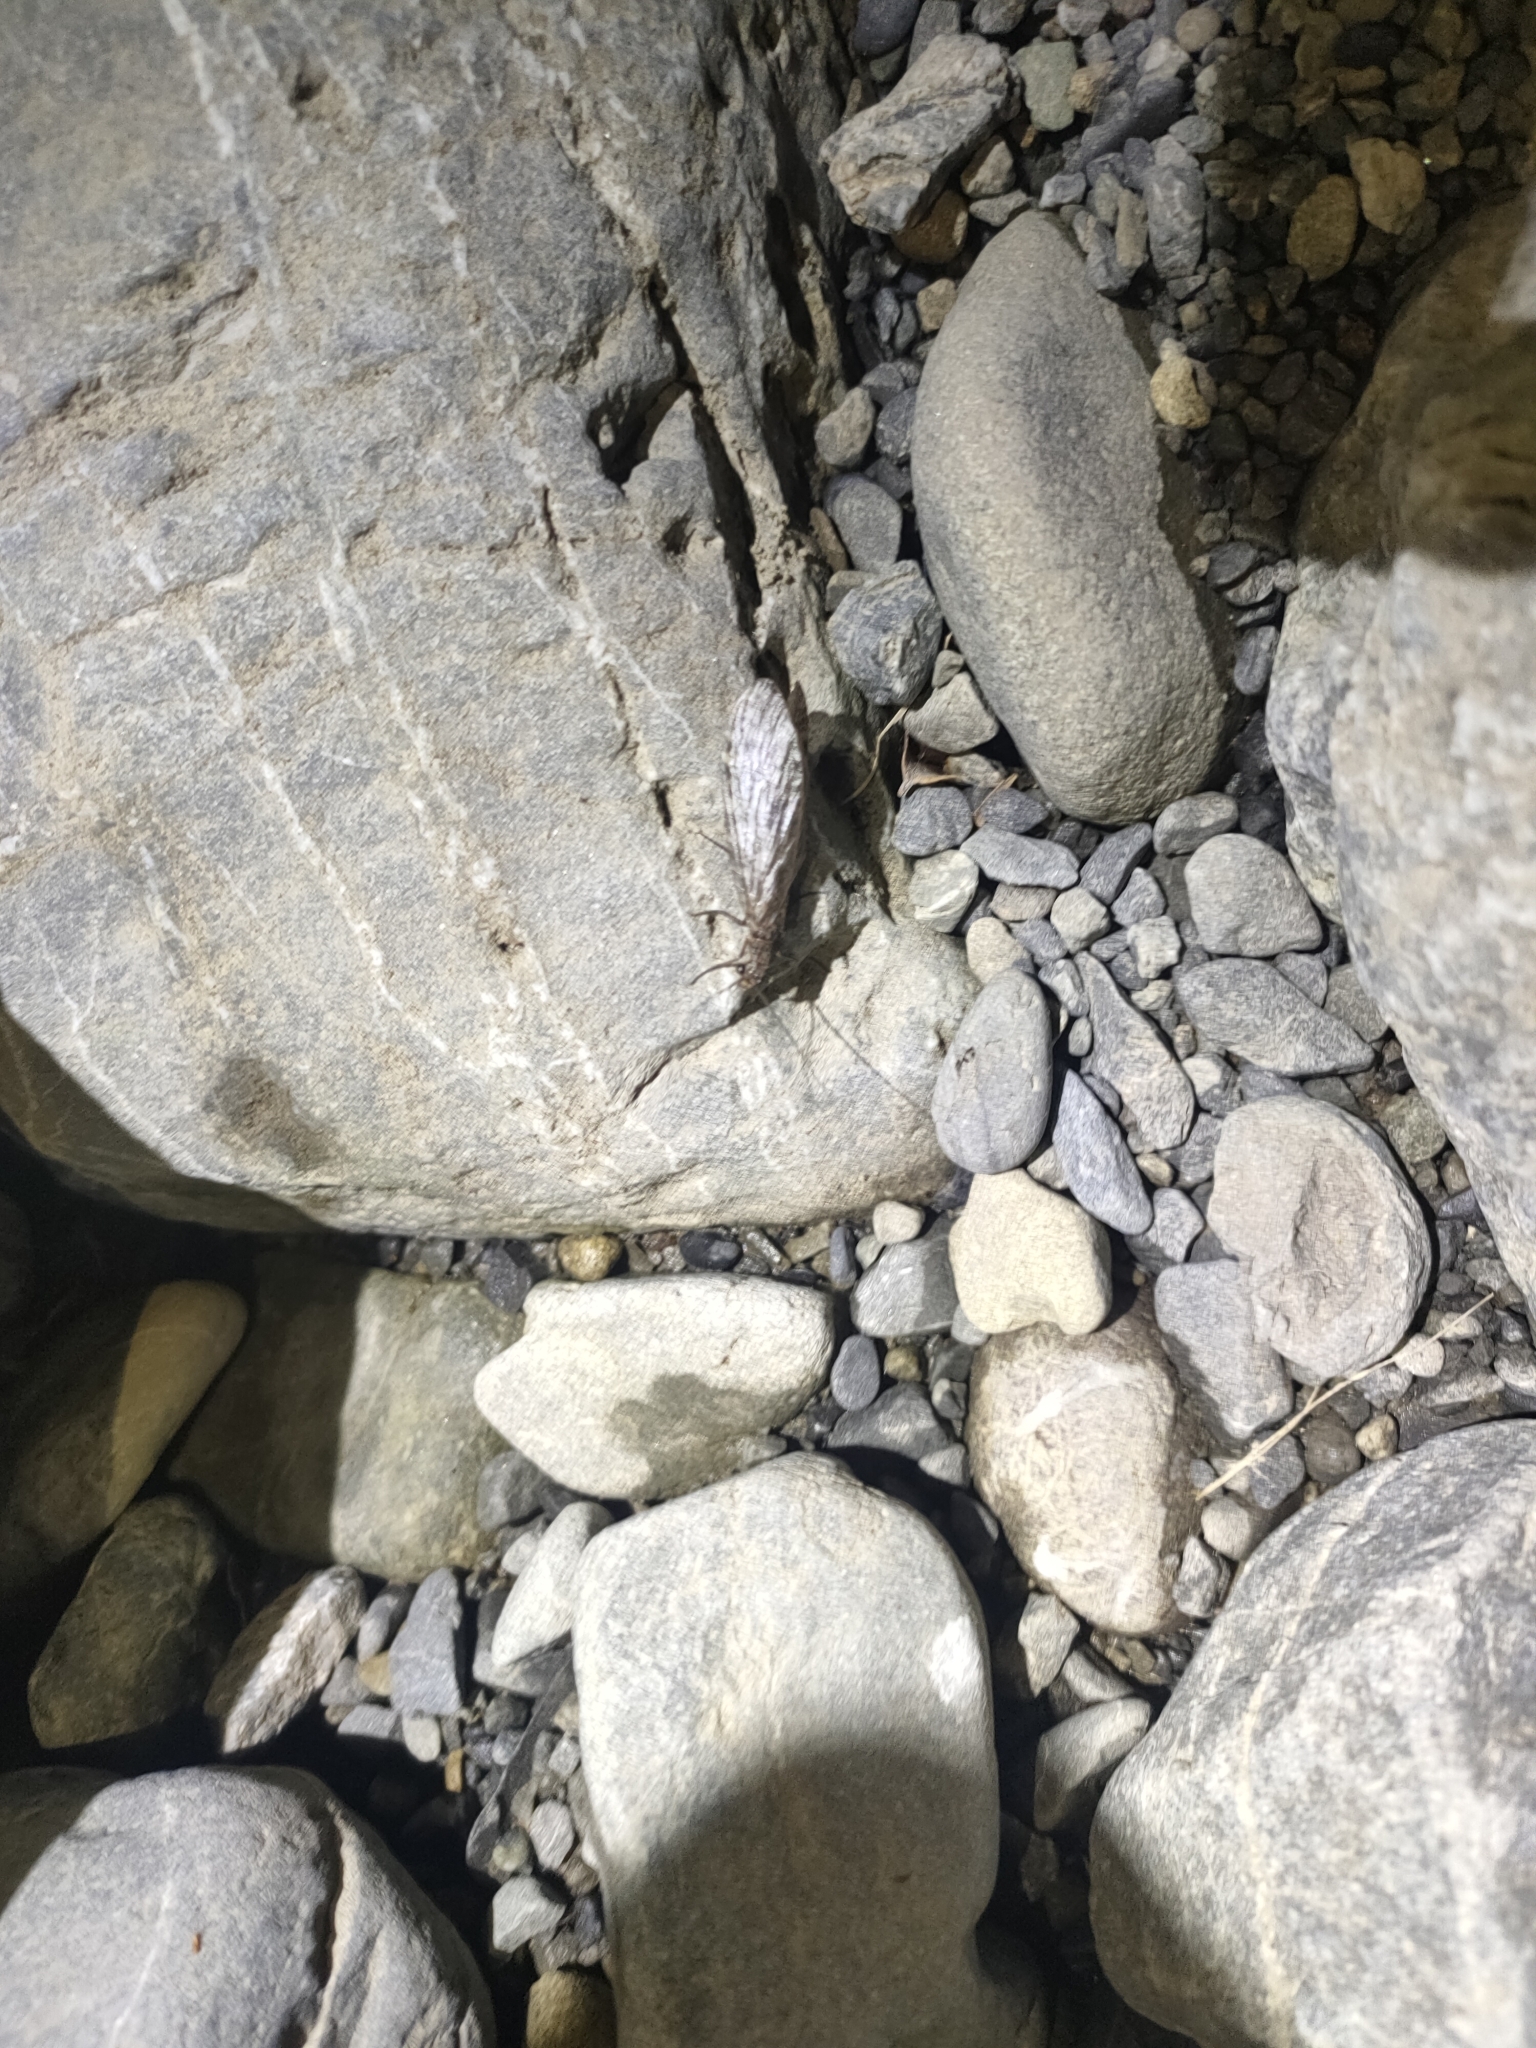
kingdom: Animalia
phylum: Arthropoda
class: Insecta
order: Megaloptera
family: Corydalidae
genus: Archichauliodes
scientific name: Archichauliodes diversus
